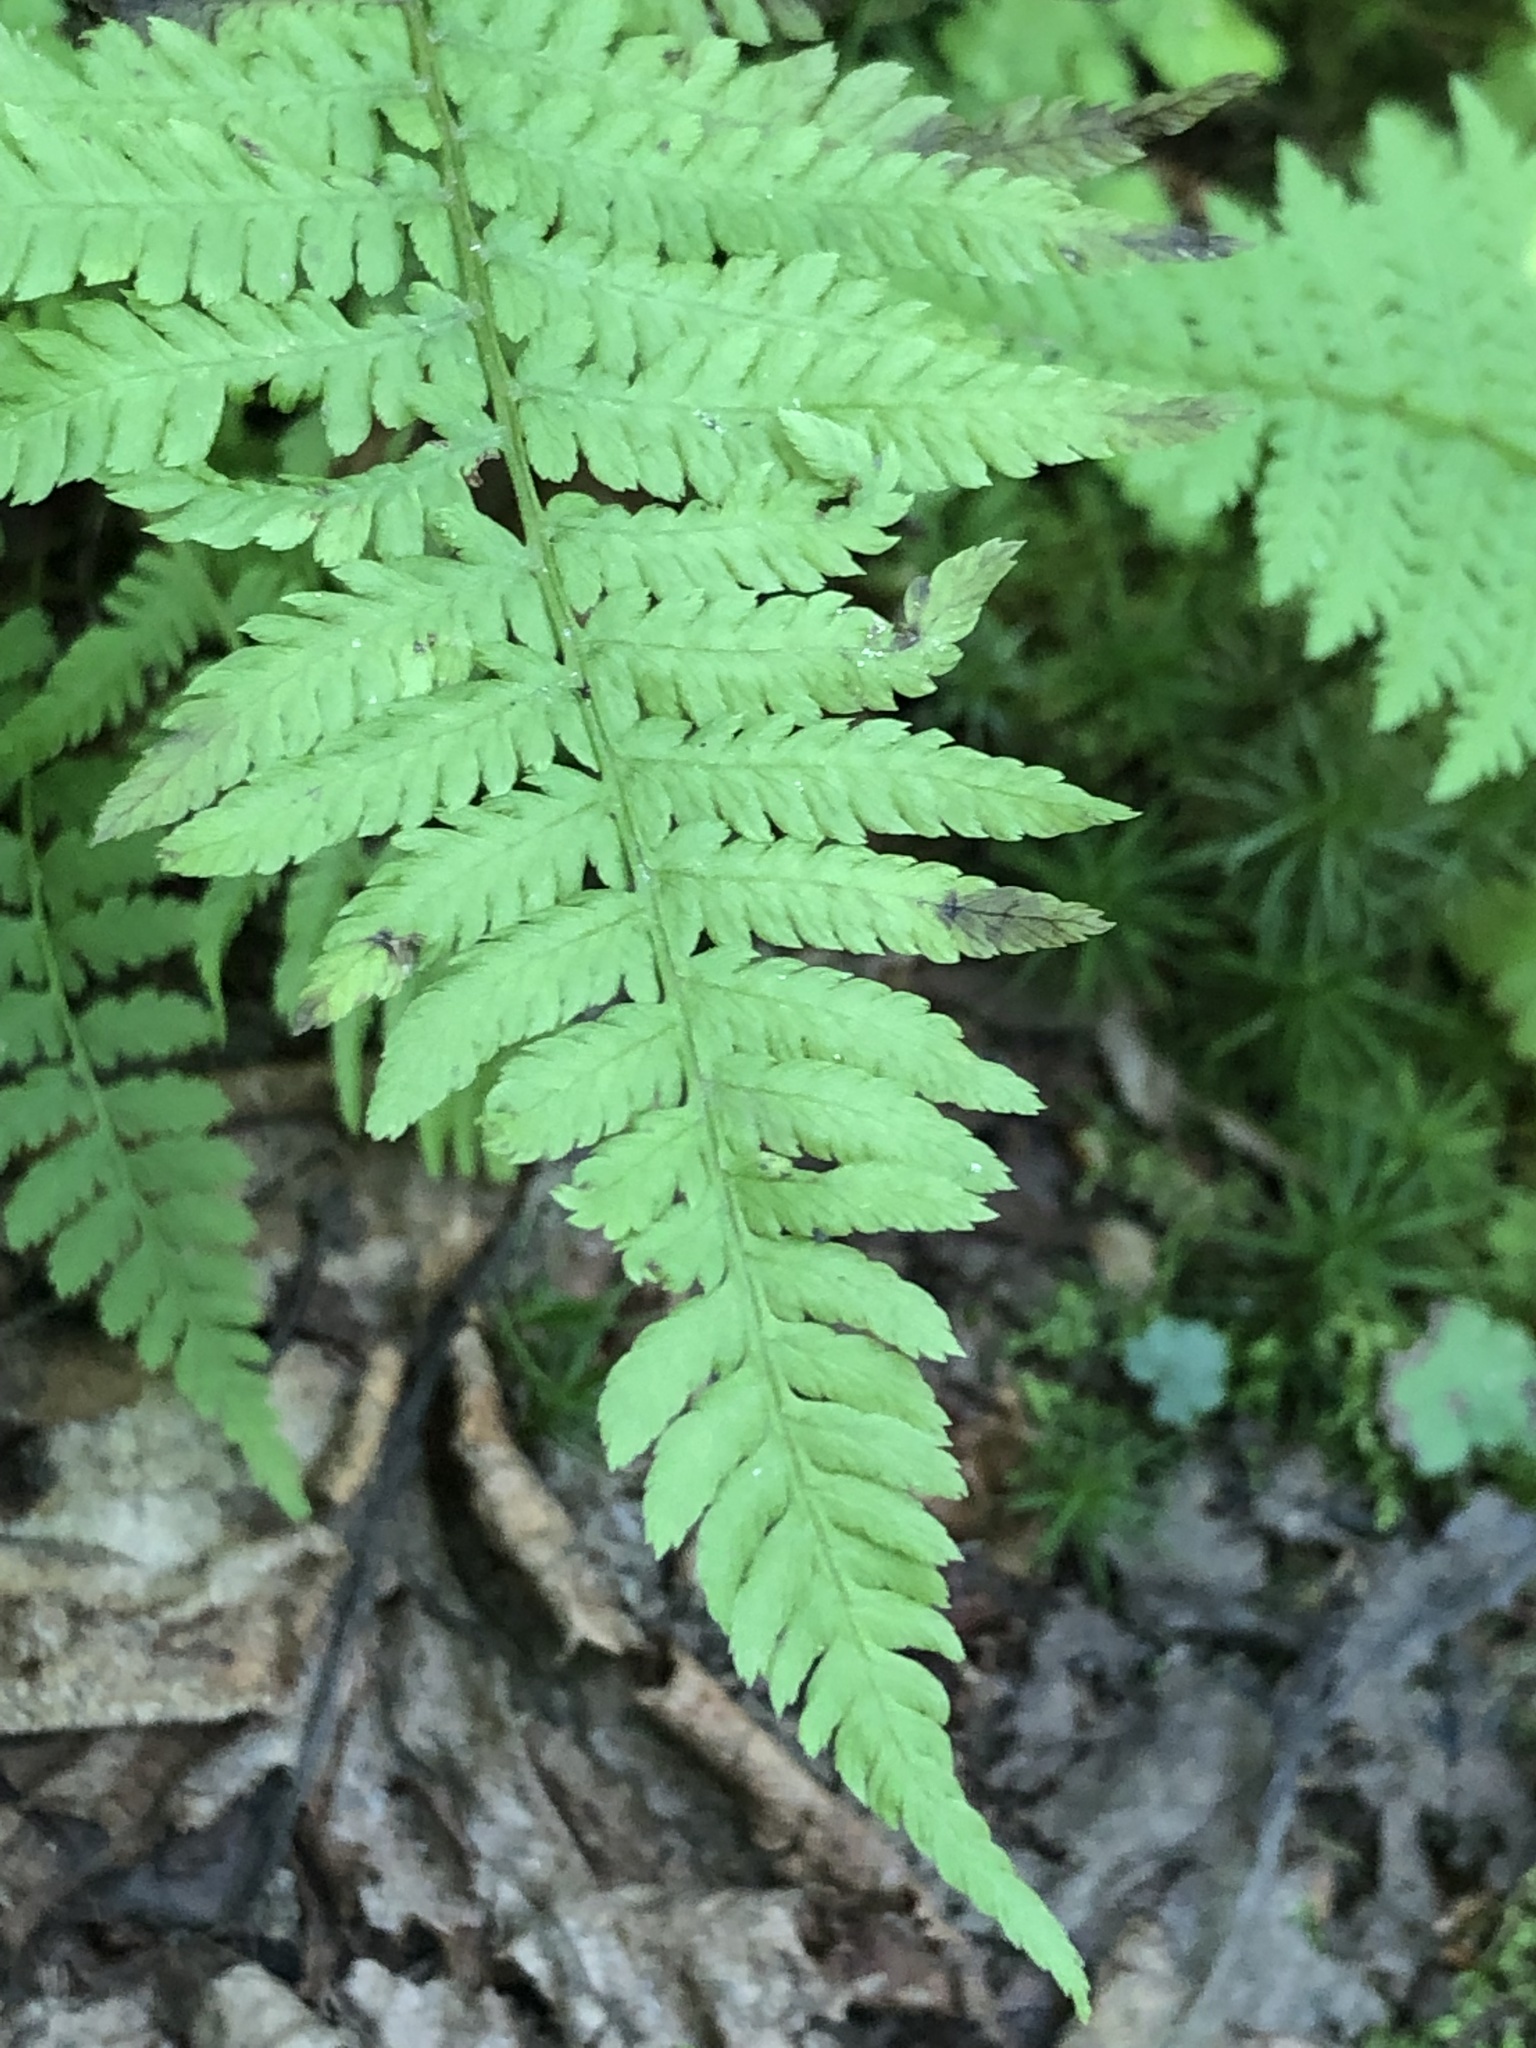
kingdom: Plantae
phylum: Tracheophyta
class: Polypodiopsida
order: Polypodiales
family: Dryopteridaceae
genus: Dryopteris
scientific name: Dryopteris
